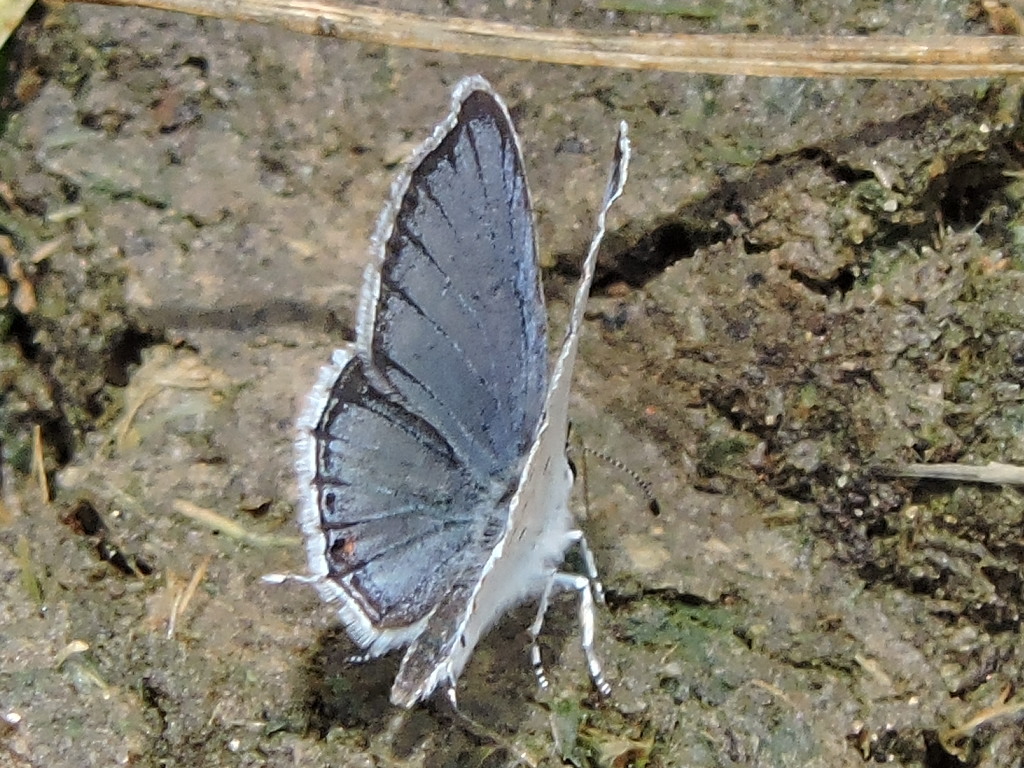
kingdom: Animalia
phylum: Arthropoda
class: Insecta
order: Lepidoptera
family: Lycaenidae
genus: Elkalyce
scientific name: Elkalyce comyntas
